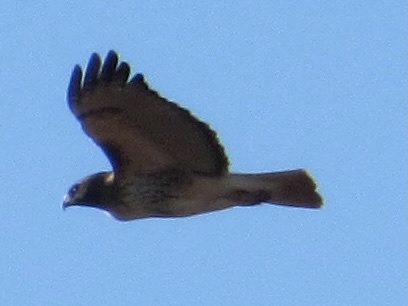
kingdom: Animalia
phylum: Chordata
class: Aves
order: Accipitriformes
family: Accipitridae
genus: Buteo
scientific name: Buteo jamaicensis
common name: Red-tailed hawk
